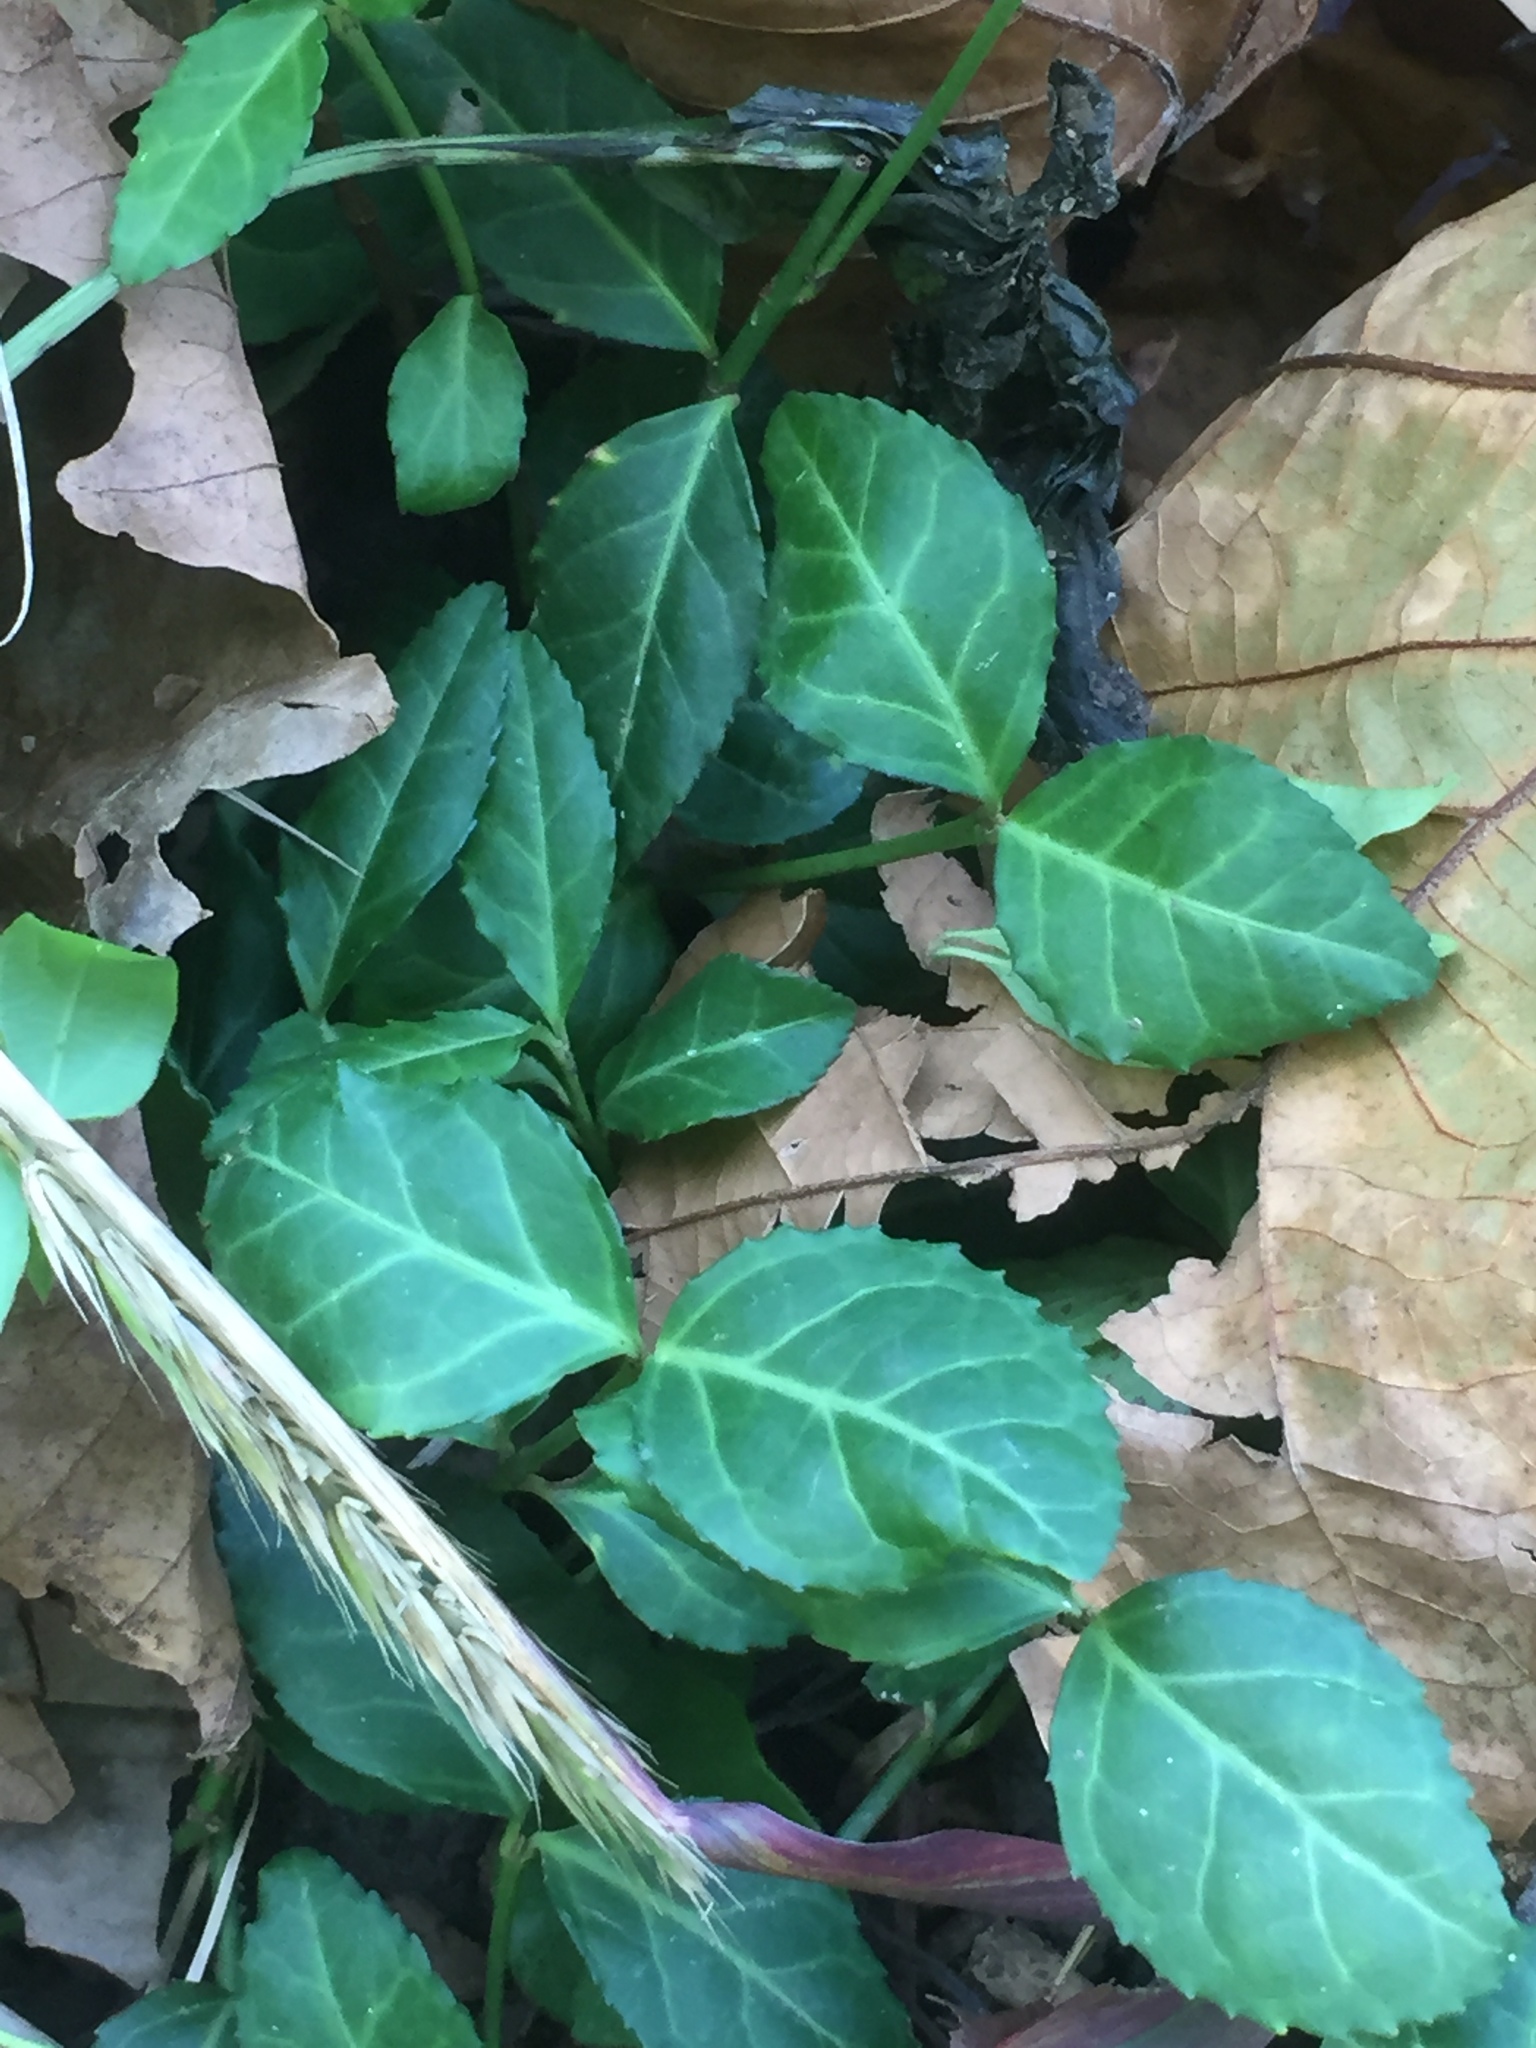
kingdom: Plantae
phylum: Tracheophyta
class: Magnoliopsida
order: Celastrales
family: Celastraceae
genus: Euonymus
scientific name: Euonymus fortunei
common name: Climbing euonymus
